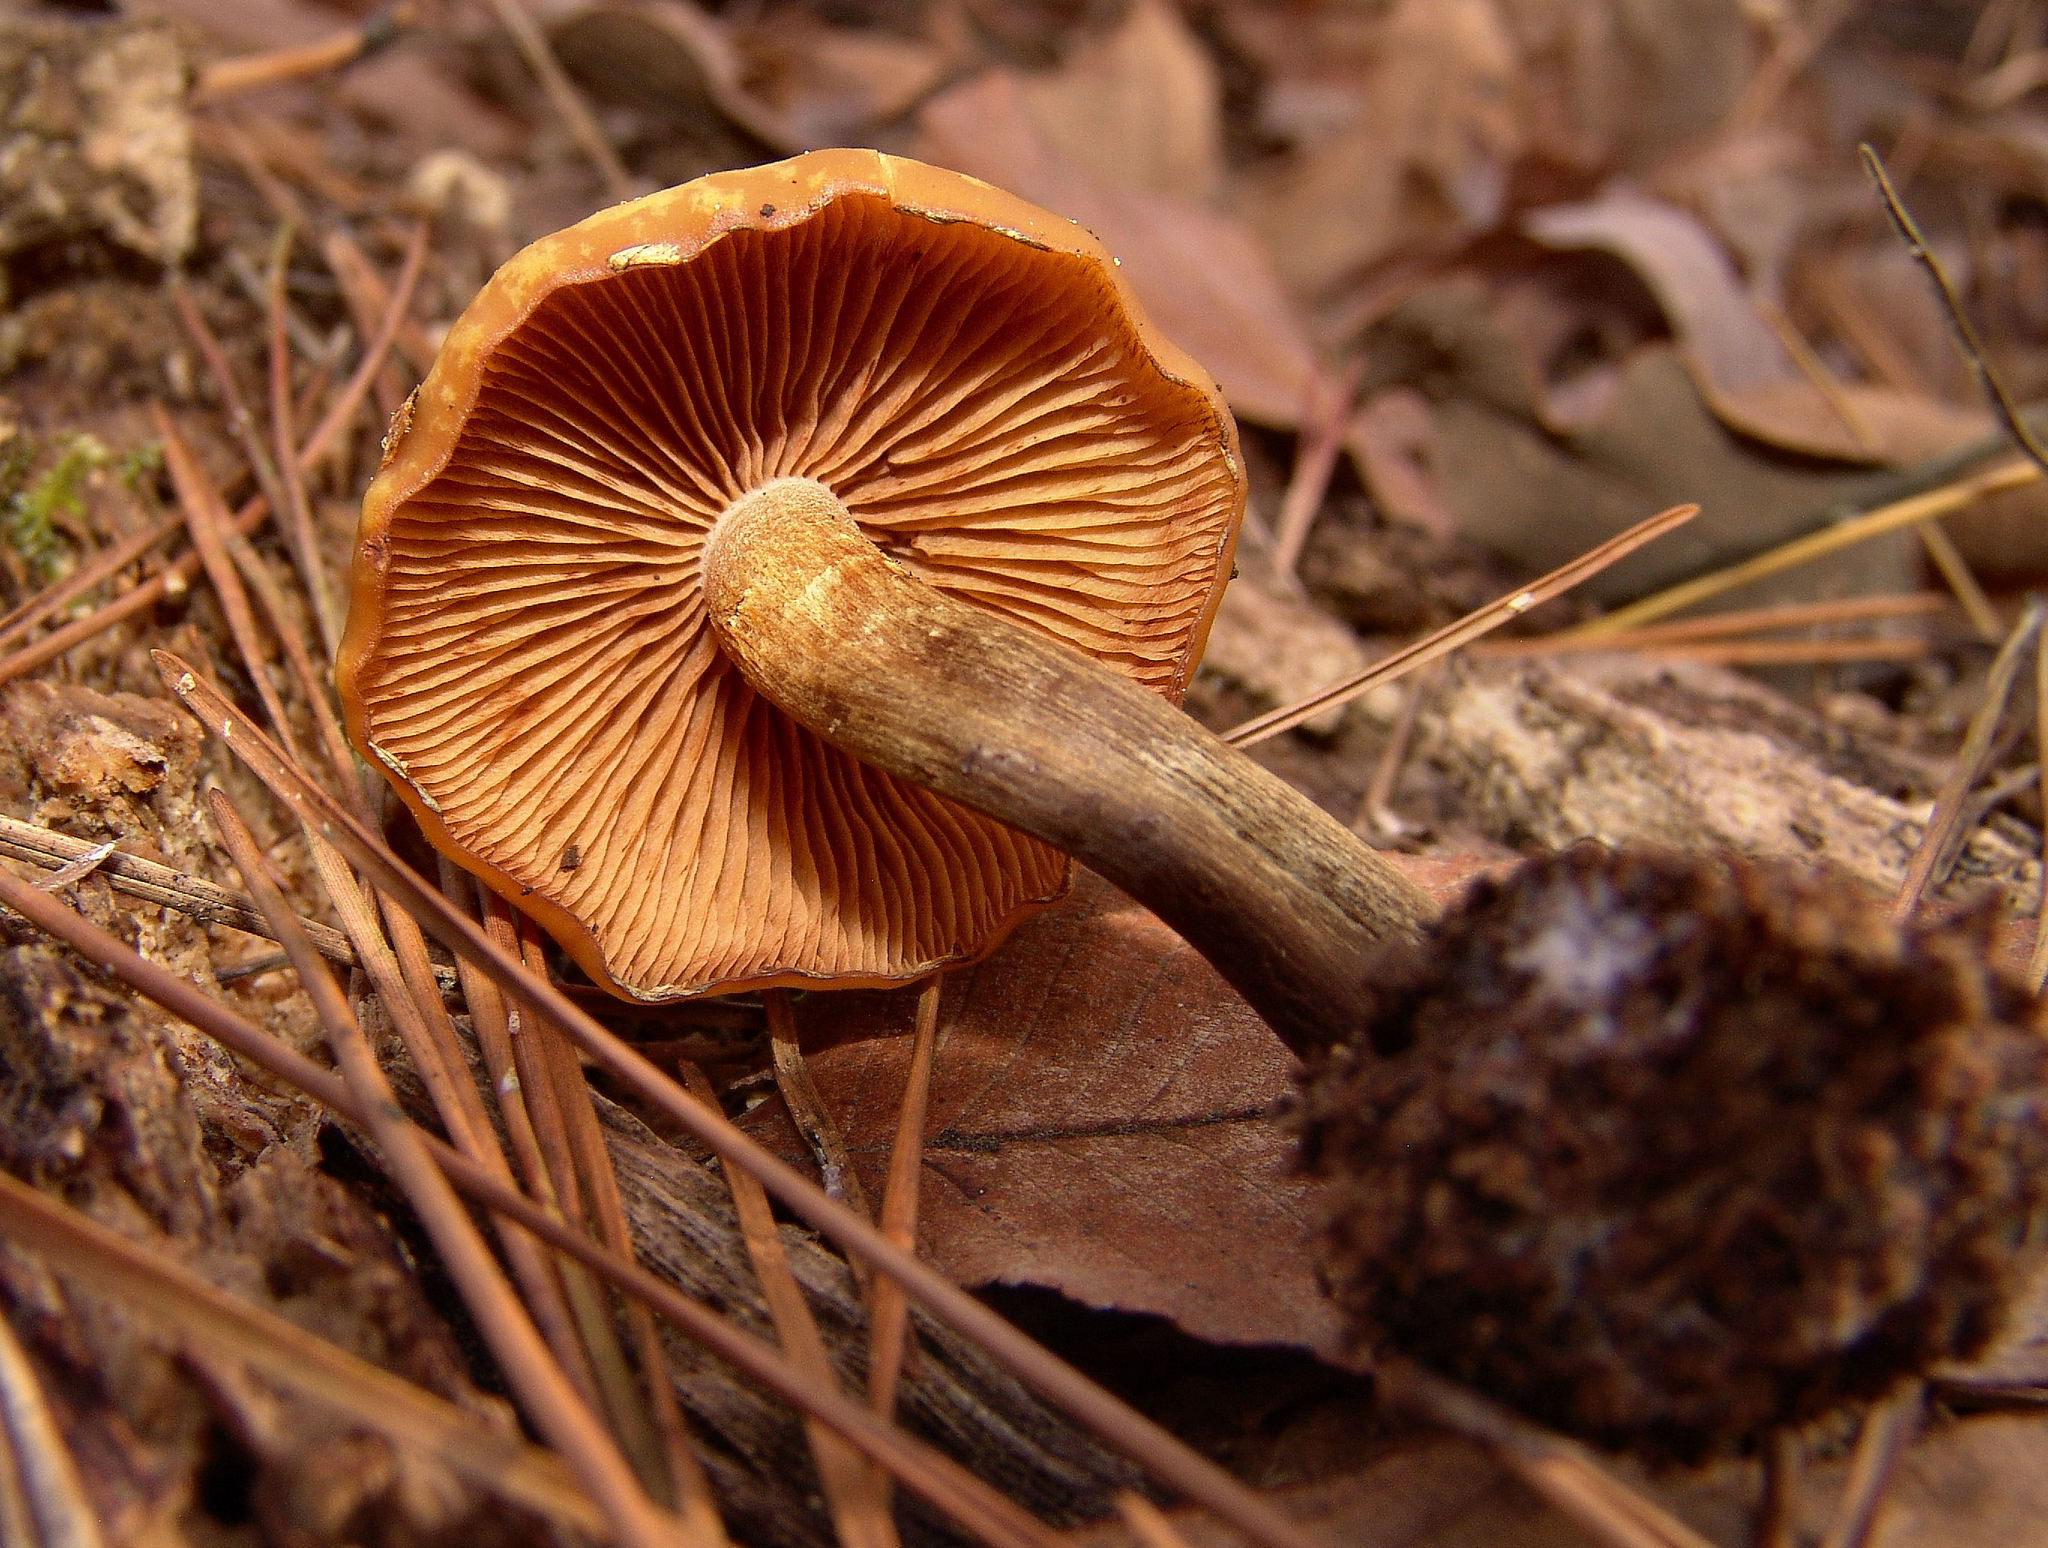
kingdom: Fungi
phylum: Basidiomycota
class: Agaricomycetes
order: Agaricales
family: Hymenogastraceae
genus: Galerina
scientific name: Galerina marginata
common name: Funeral bell
